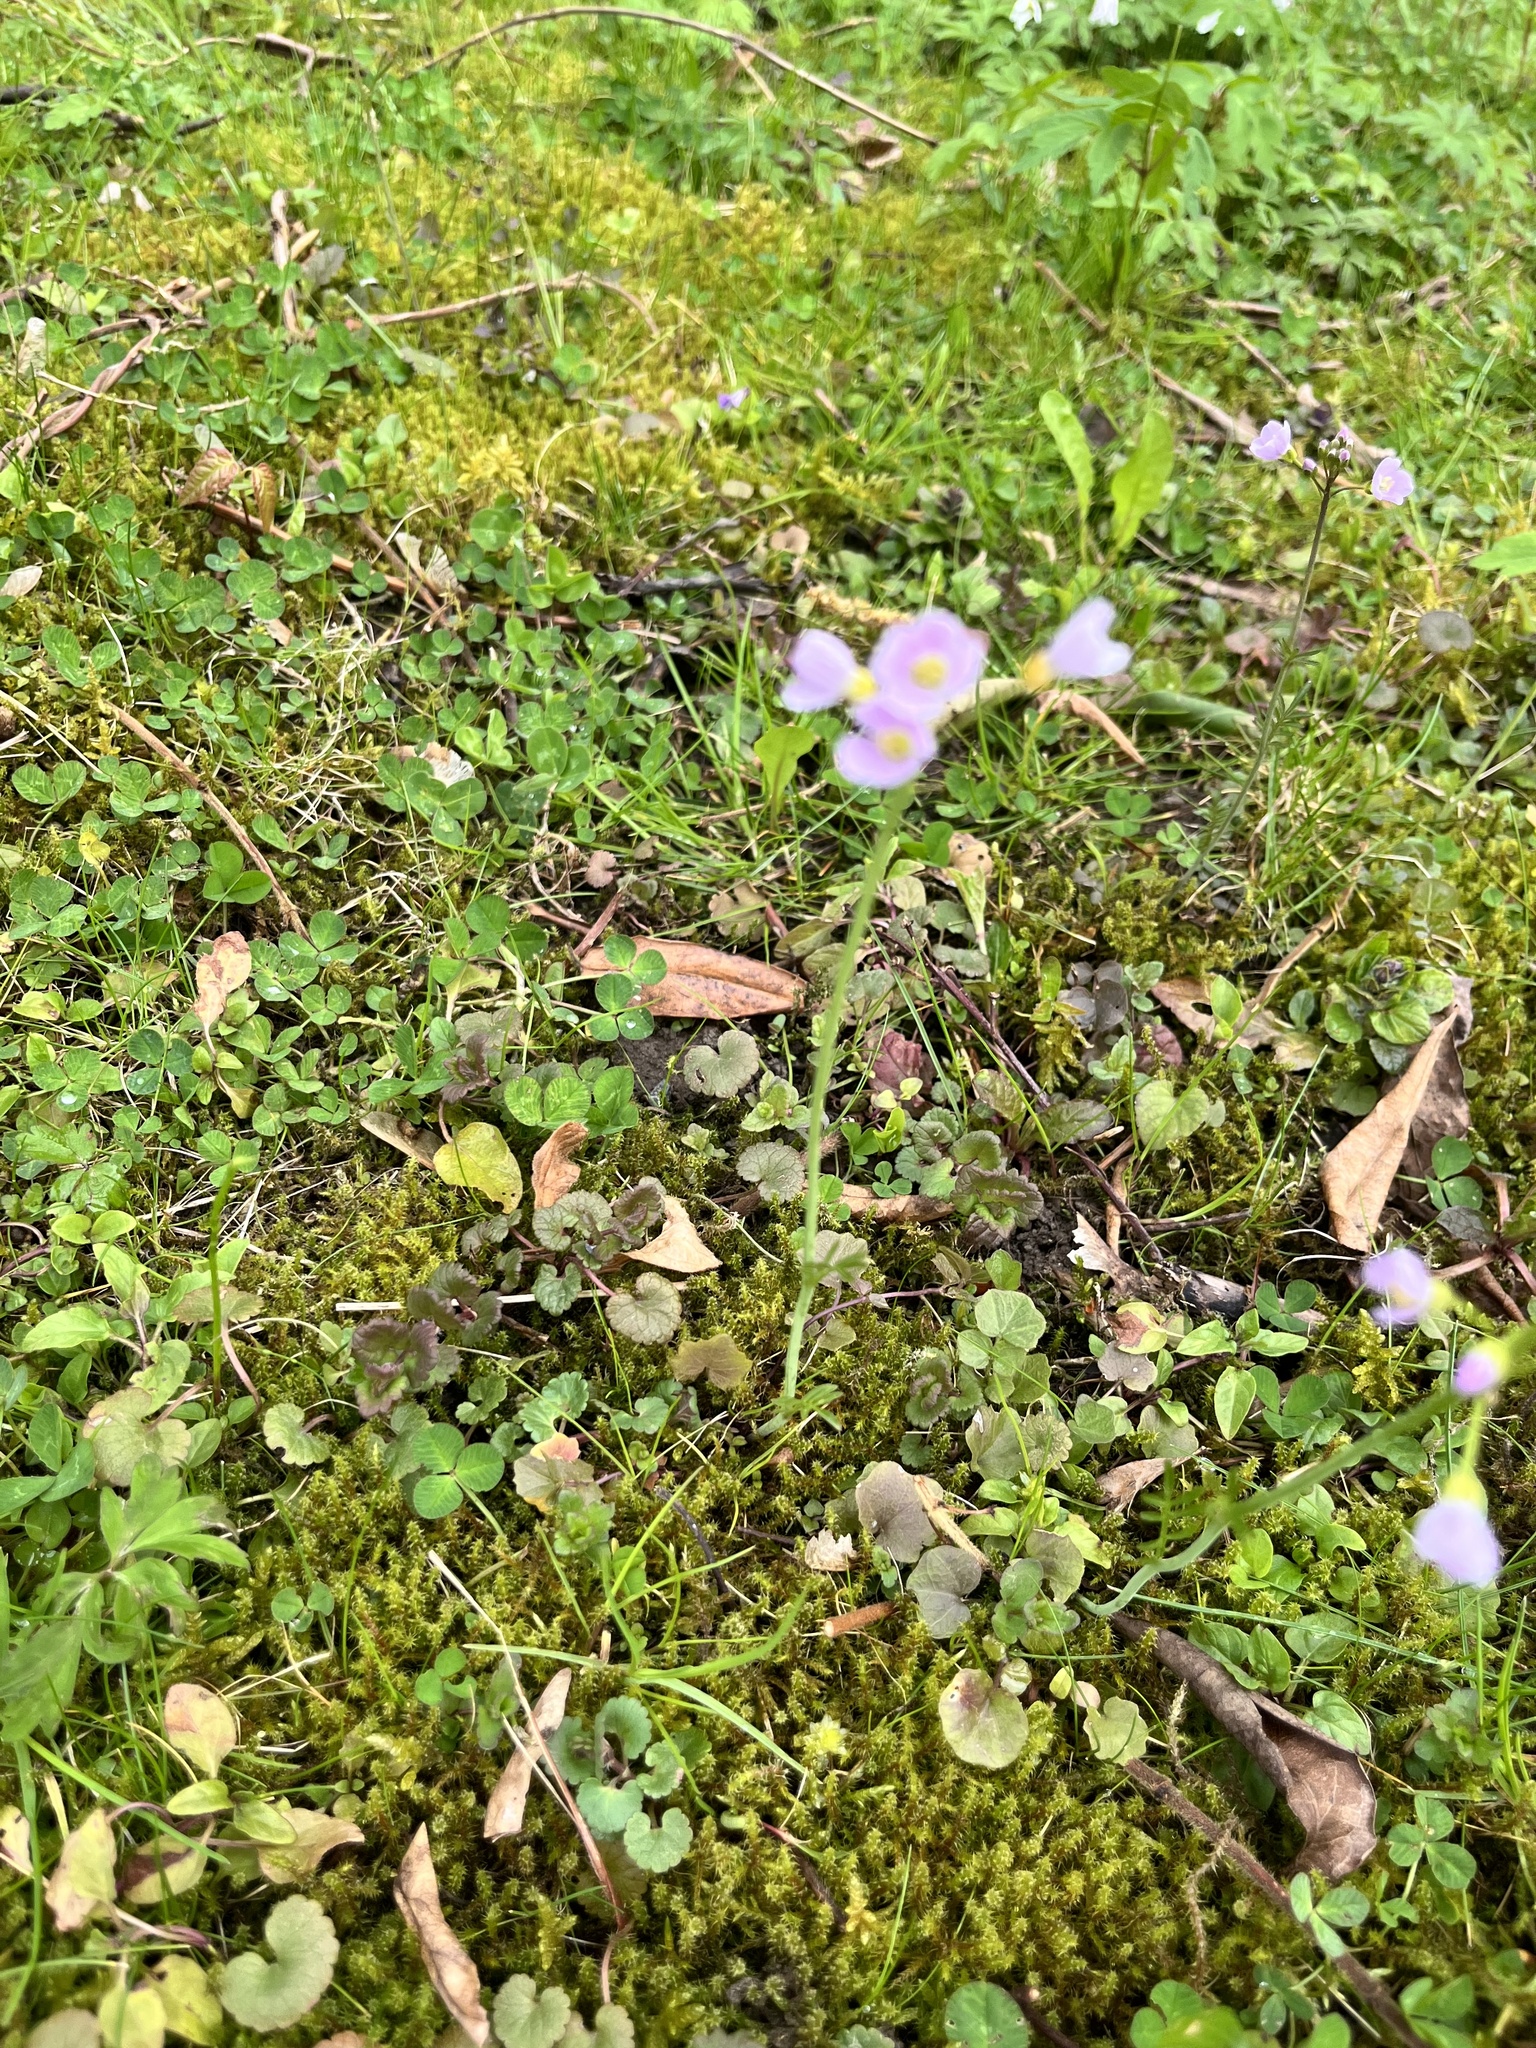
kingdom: Plantae
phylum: Tracheophyta
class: Magnoliopsida
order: Brassicales
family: Brassicaceae
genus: Cardamine
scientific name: Cardamine pratensis
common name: Cuckoo flower
